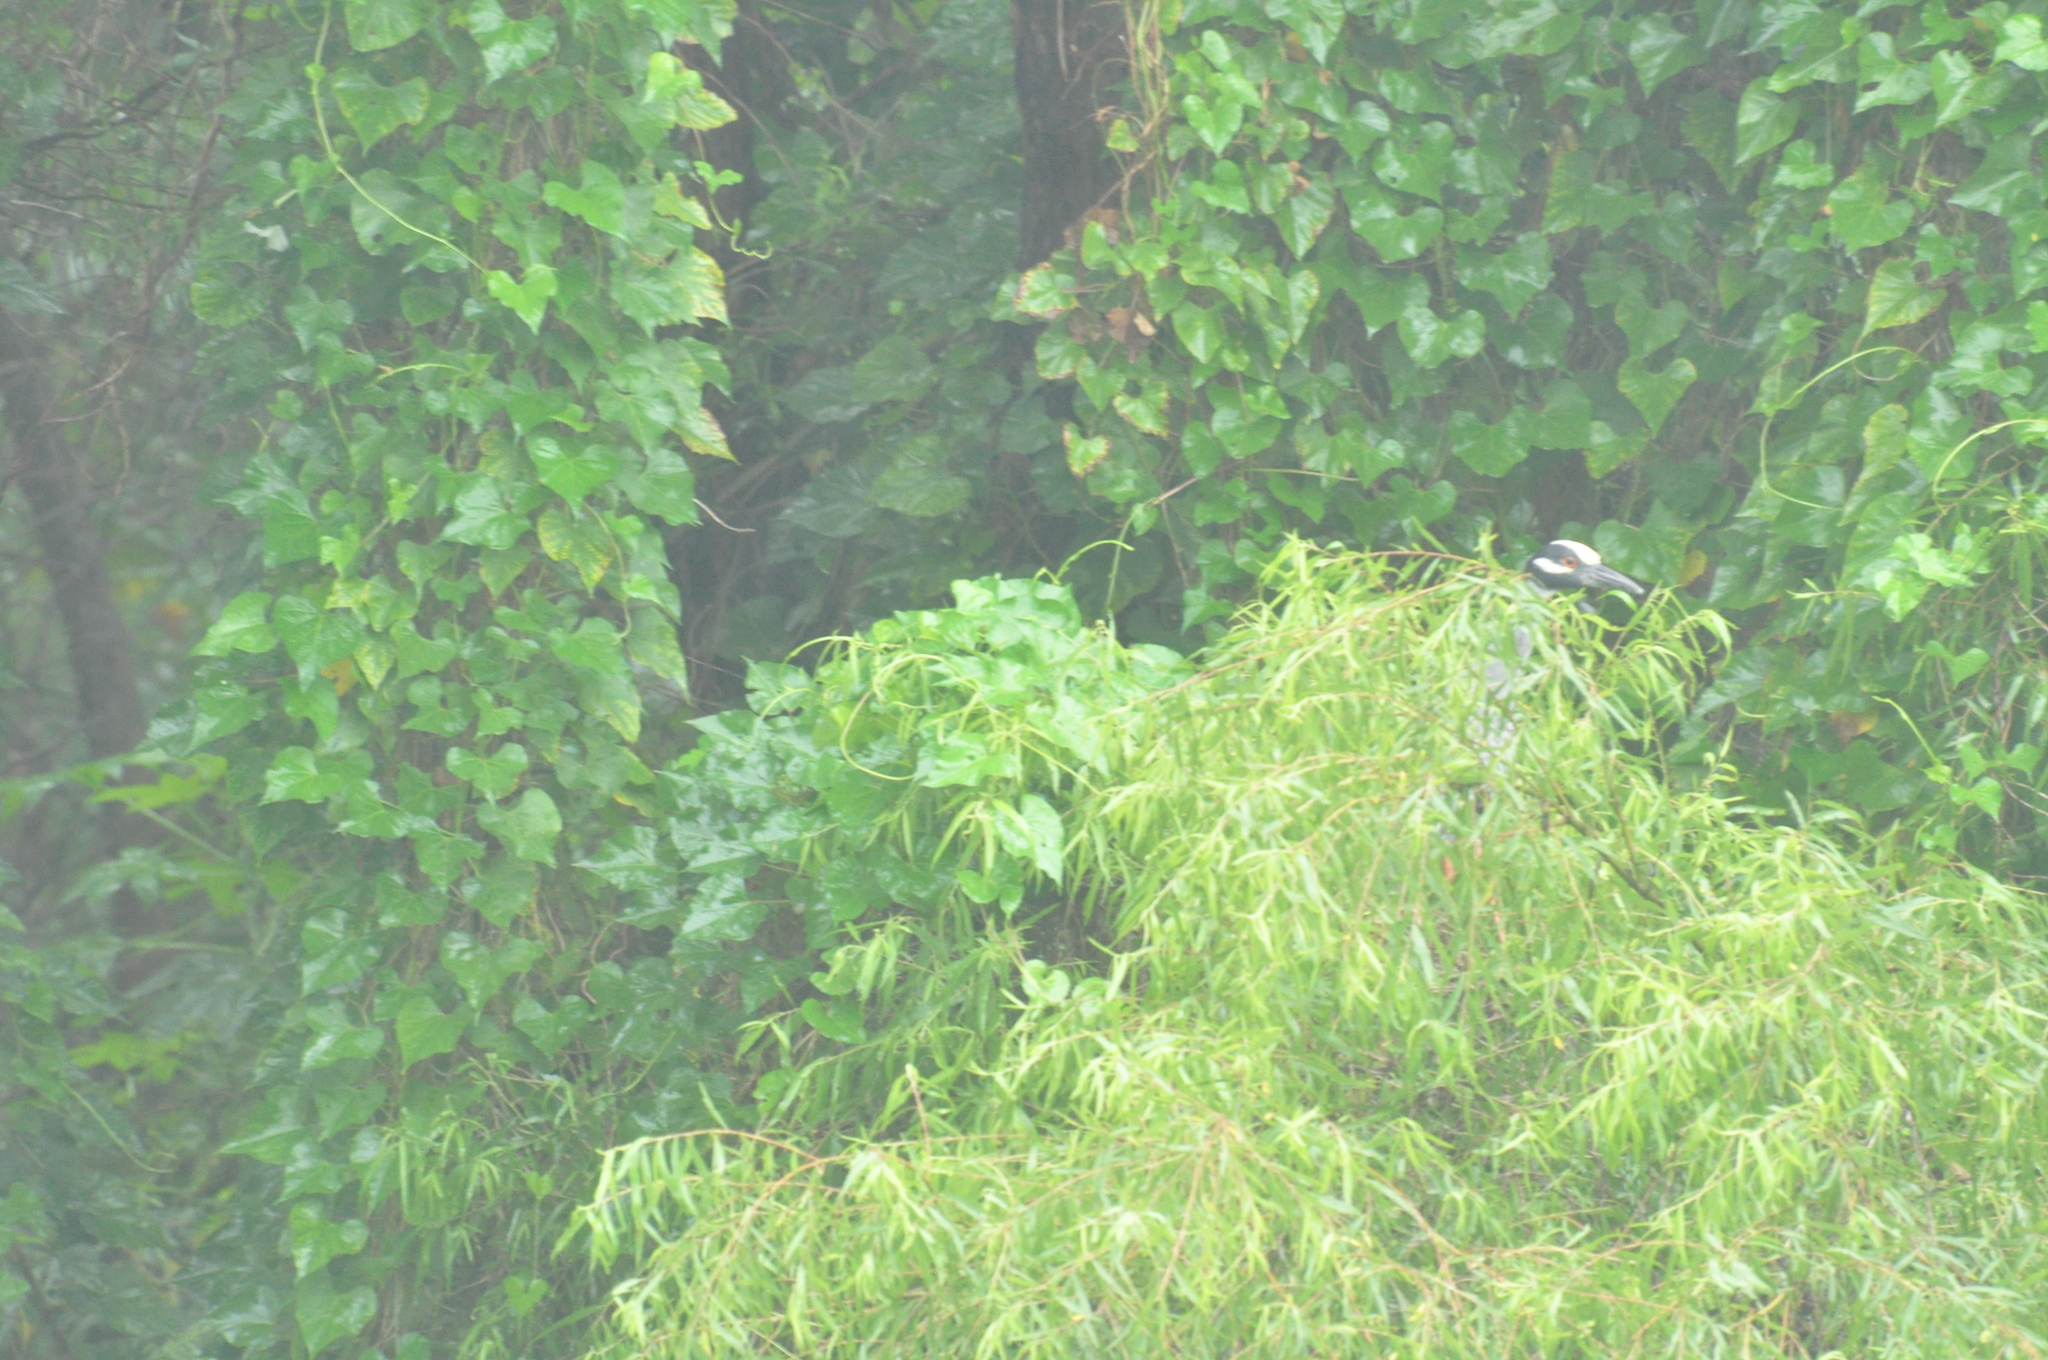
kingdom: Animalia
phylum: Chordata
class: Aves
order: Pelecaniformes
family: Ardeidae
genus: Nyctanassa
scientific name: Nyctanassa violacea
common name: Yellow-crowned night heron
